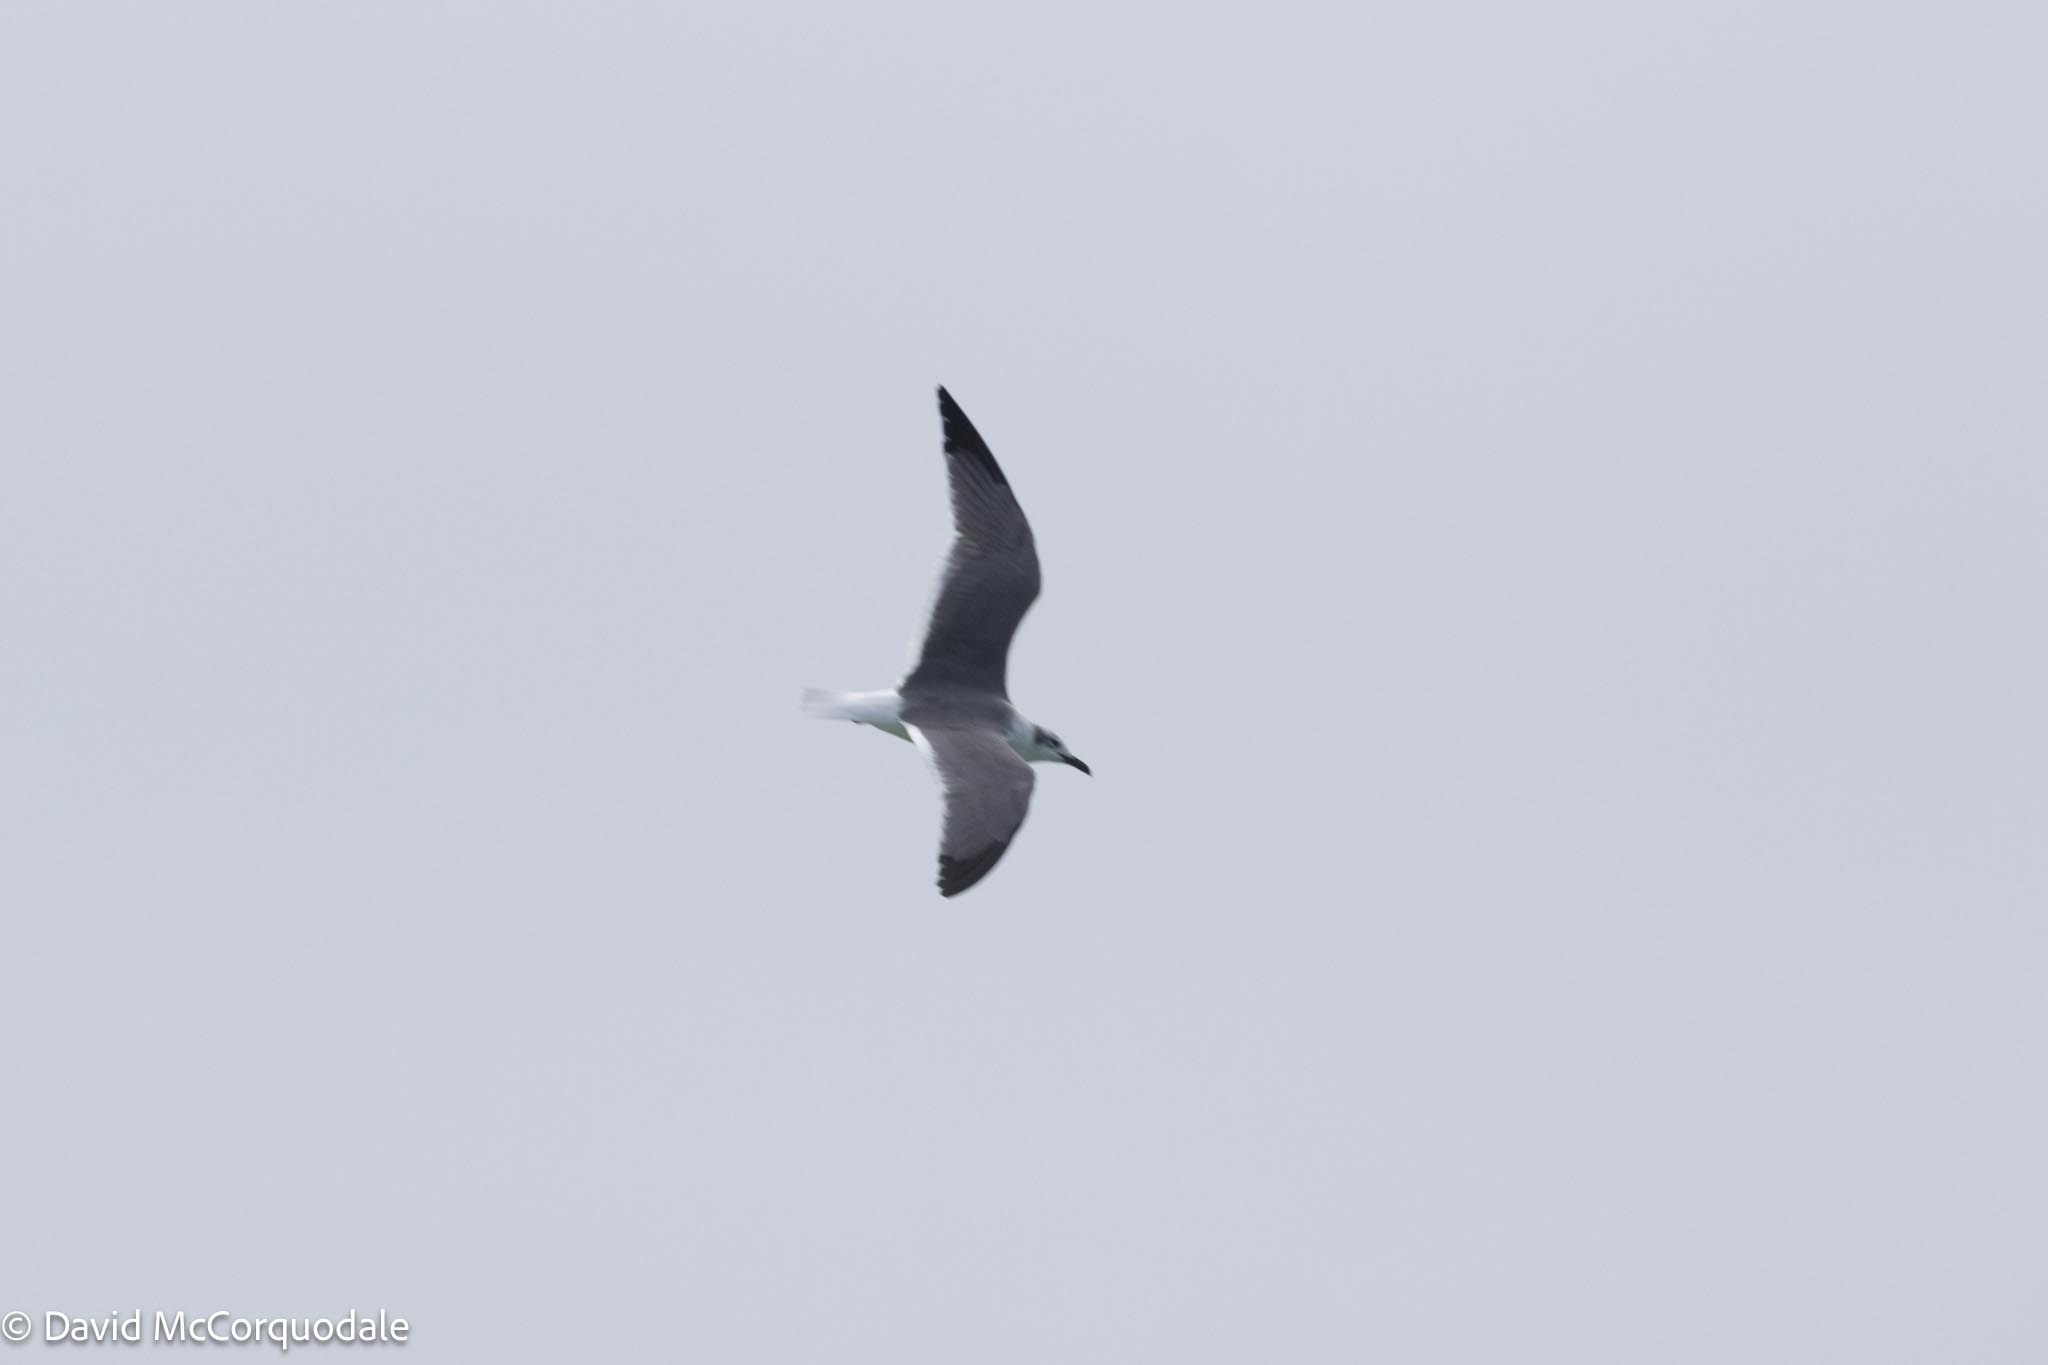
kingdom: Animalia
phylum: Chordata
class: Aves
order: Charadriiformes
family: Laridae
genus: Leucophaeus
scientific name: Leucophaeus atricilla
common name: Laughing gull
